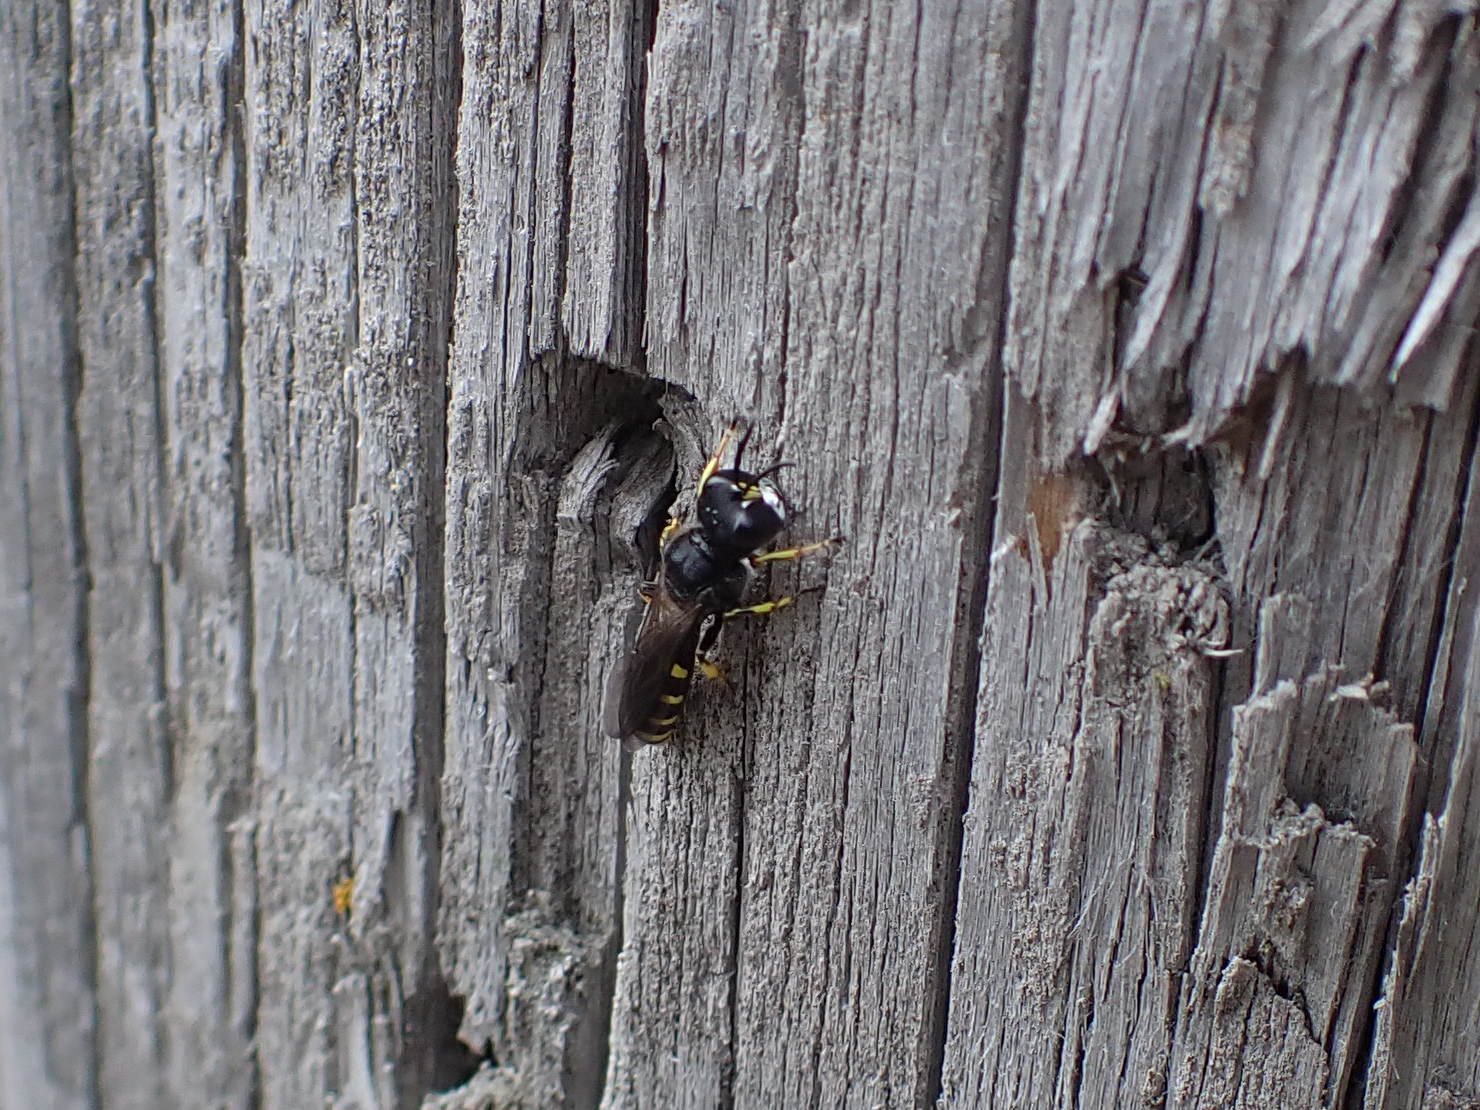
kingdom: Animalia
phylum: Arthropoda
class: Insecta
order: Hymenoptera
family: Crabronidae
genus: Ectemnius
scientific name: Ectemnius cephalotes
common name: Sphecid wasp
